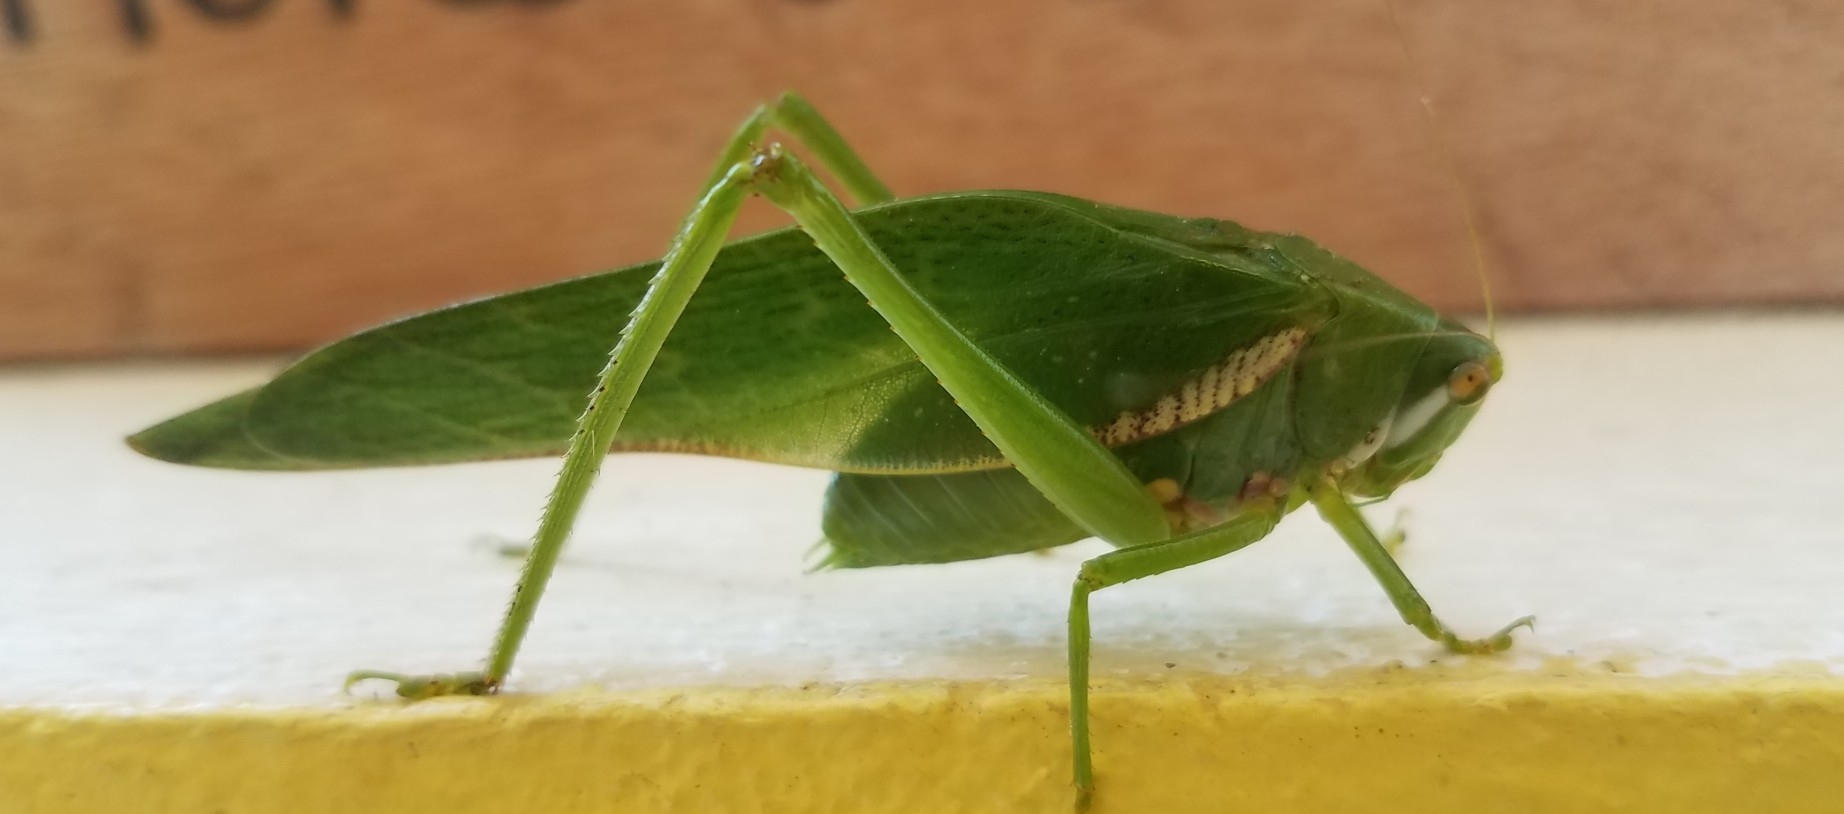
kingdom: Animalia
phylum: Arthropoda
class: Insecta
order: Orthoptera
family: Tettigoniidae
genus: Philophyllia
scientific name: Philophyllia guttulata
